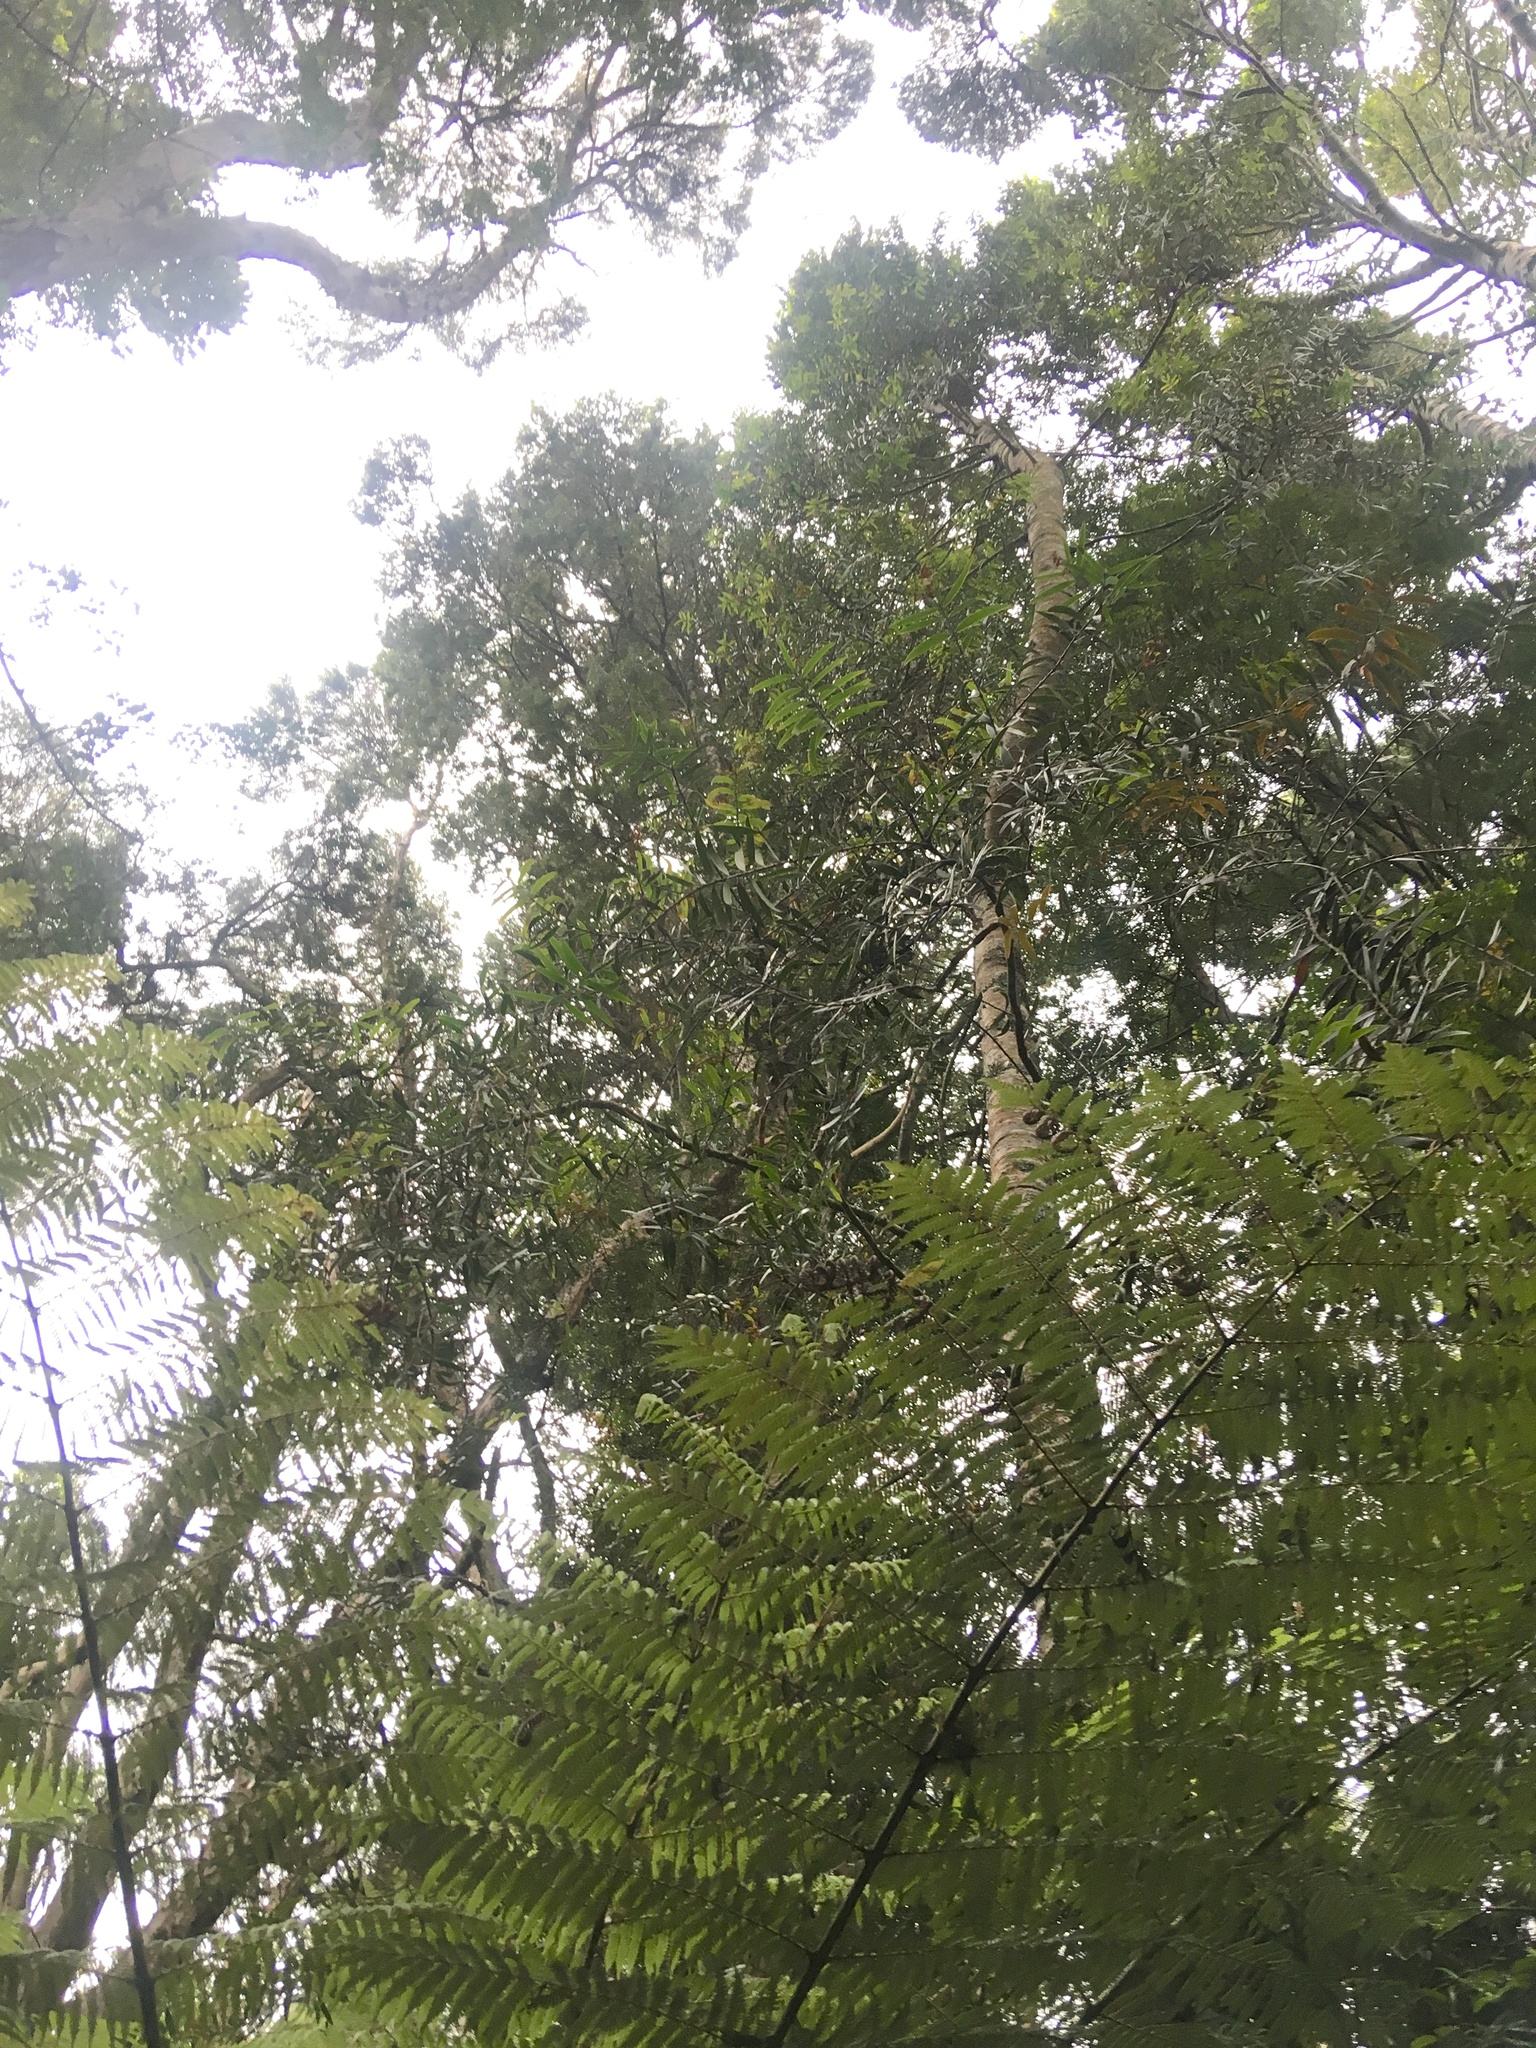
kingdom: Plantae
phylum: Tracheophyta
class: Pinopsida
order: Pinales
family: Araucariaceae
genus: Agathis
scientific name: Agathis australis
